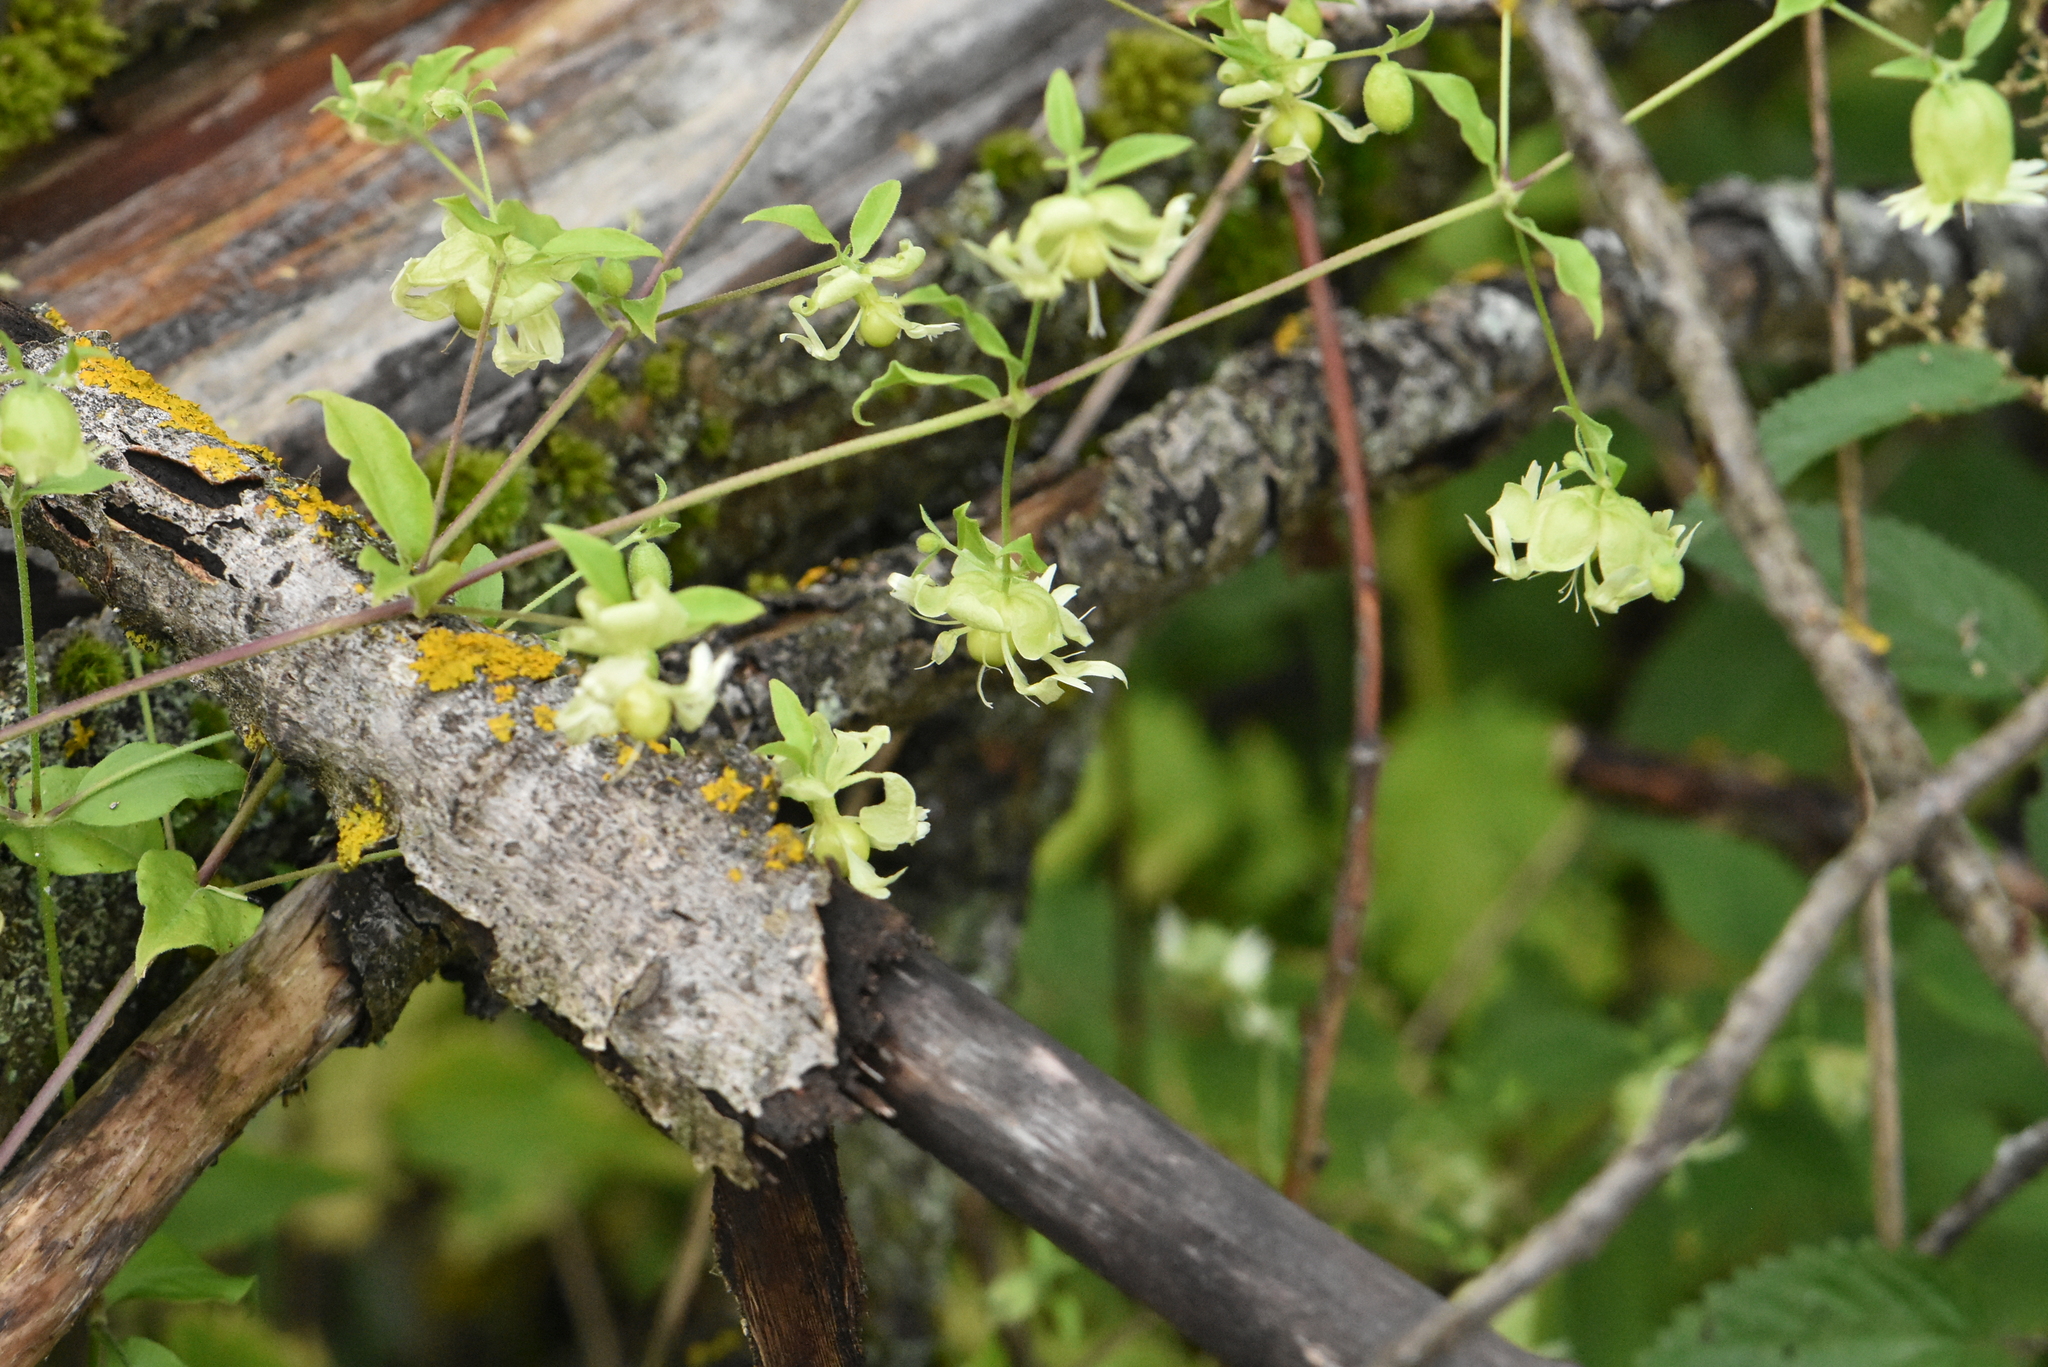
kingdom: Plantae
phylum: Tracheophyta
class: Magnoliopsida
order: Caryophyllales
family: Caryophyllaceae
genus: Silene
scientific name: Silene baccifera
